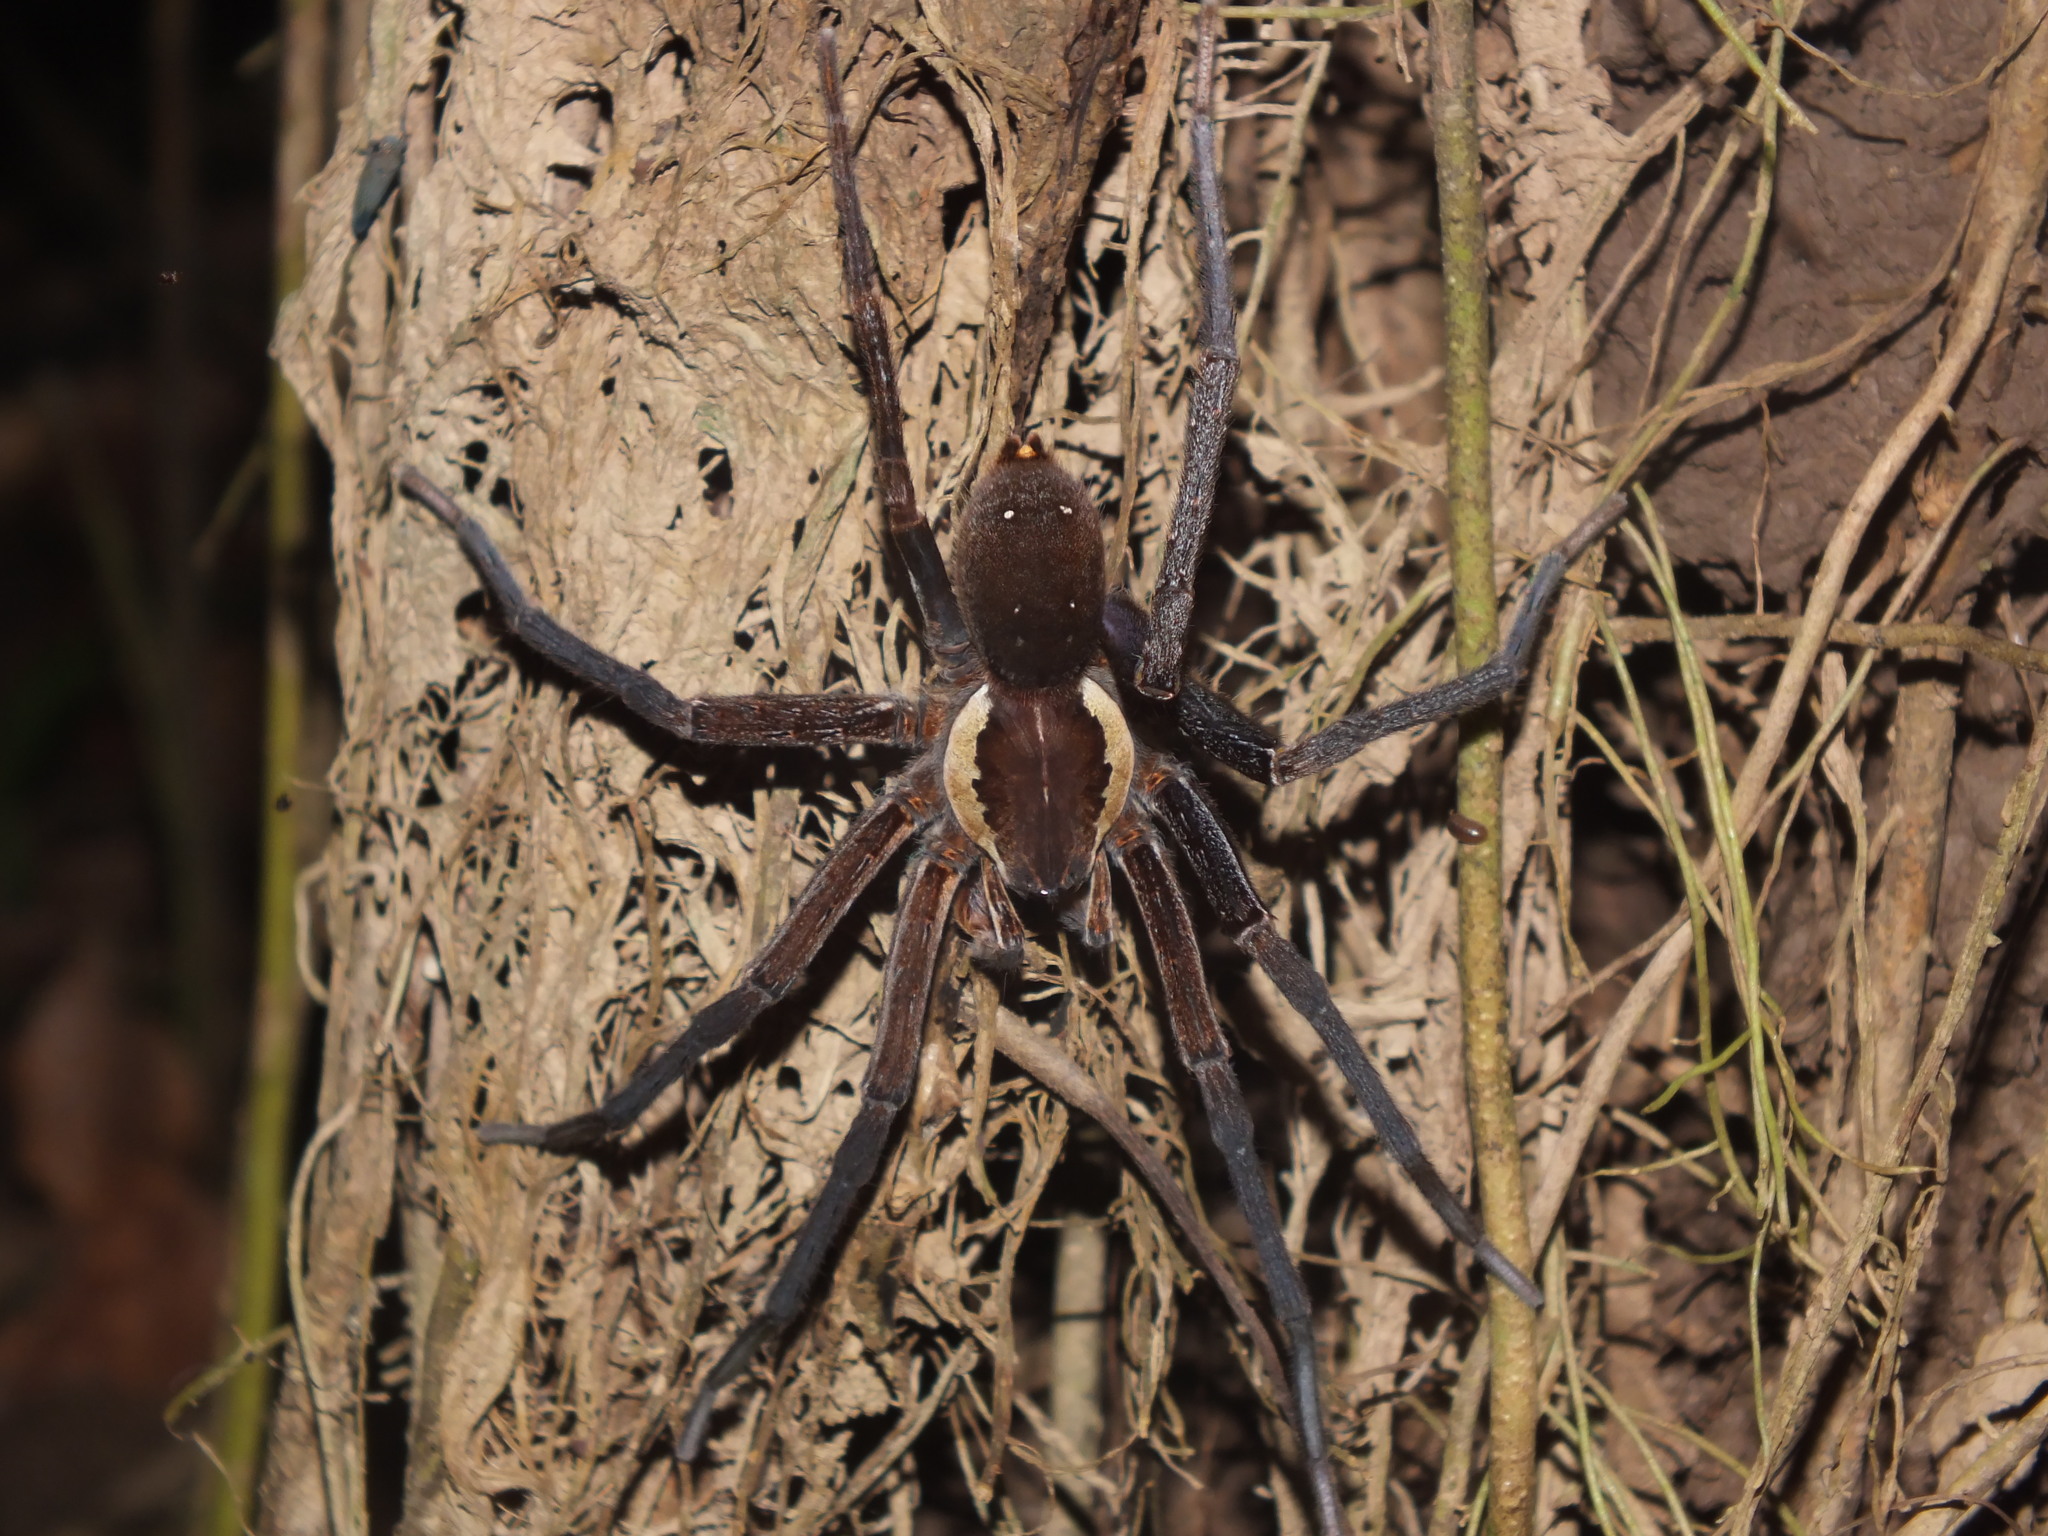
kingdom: Animalia
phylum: Arthropoda
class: Arachnida
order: Araneae
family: Ctenidae
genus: Ancylometes
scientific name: Ancylometes rufus
